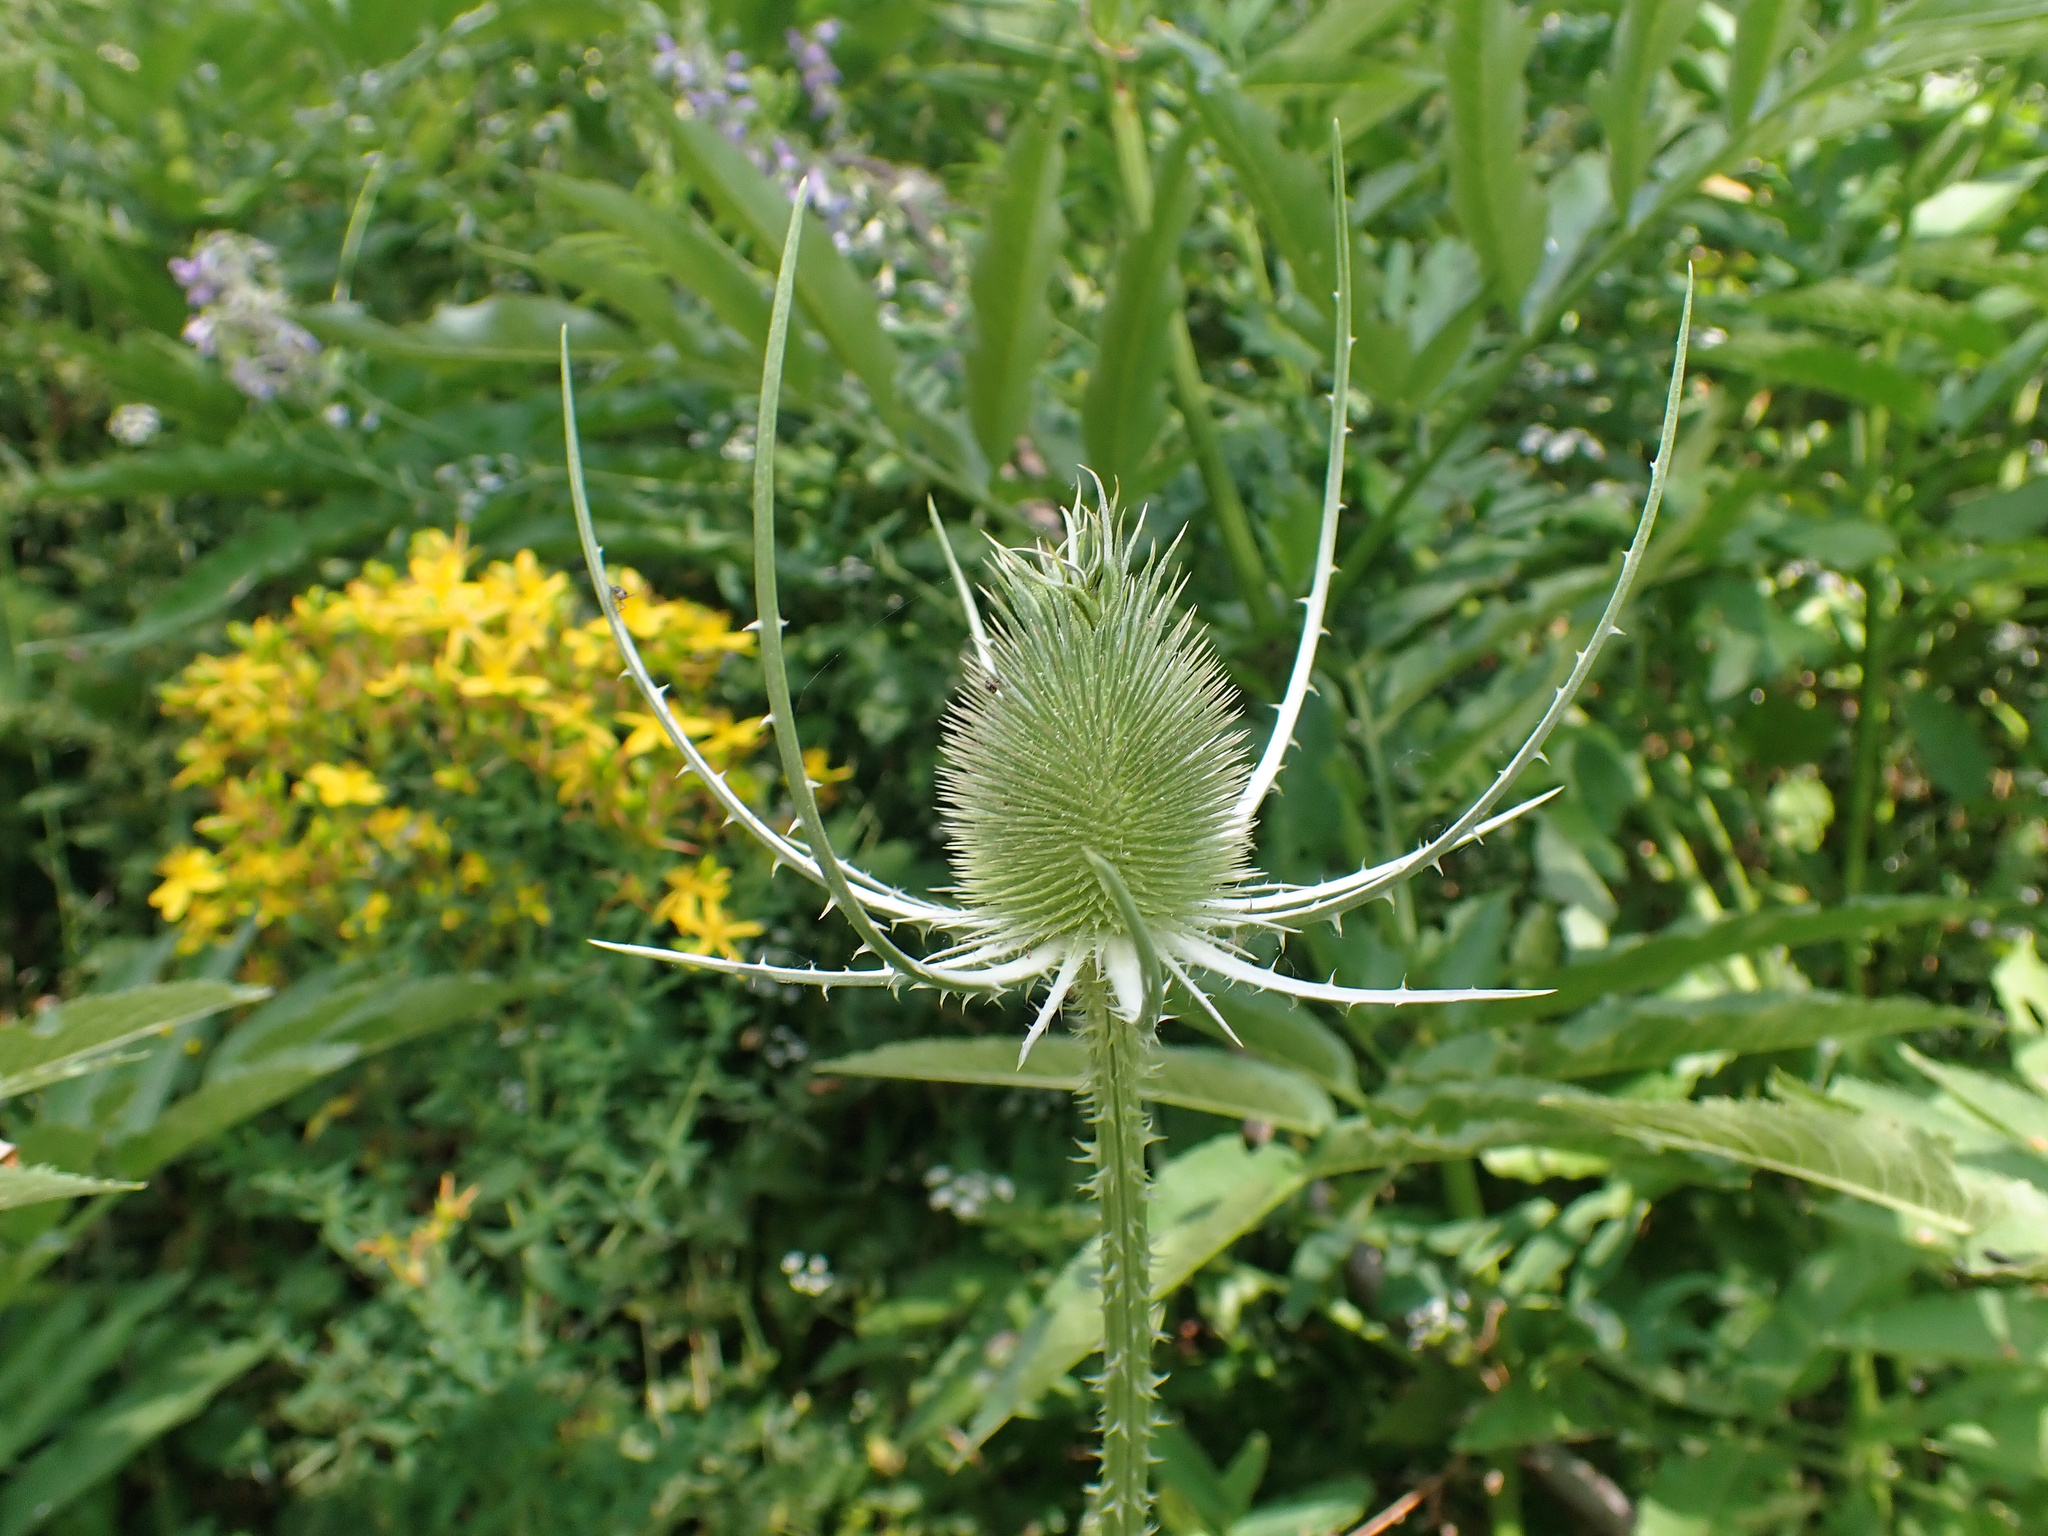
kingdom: Plantae
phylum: Tracheophyta
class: Magnoliopsida
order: Dipsacales
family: Caprifoliaceae
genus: Dipsacus
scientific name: Dipsacus fullonum
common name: Teasel
